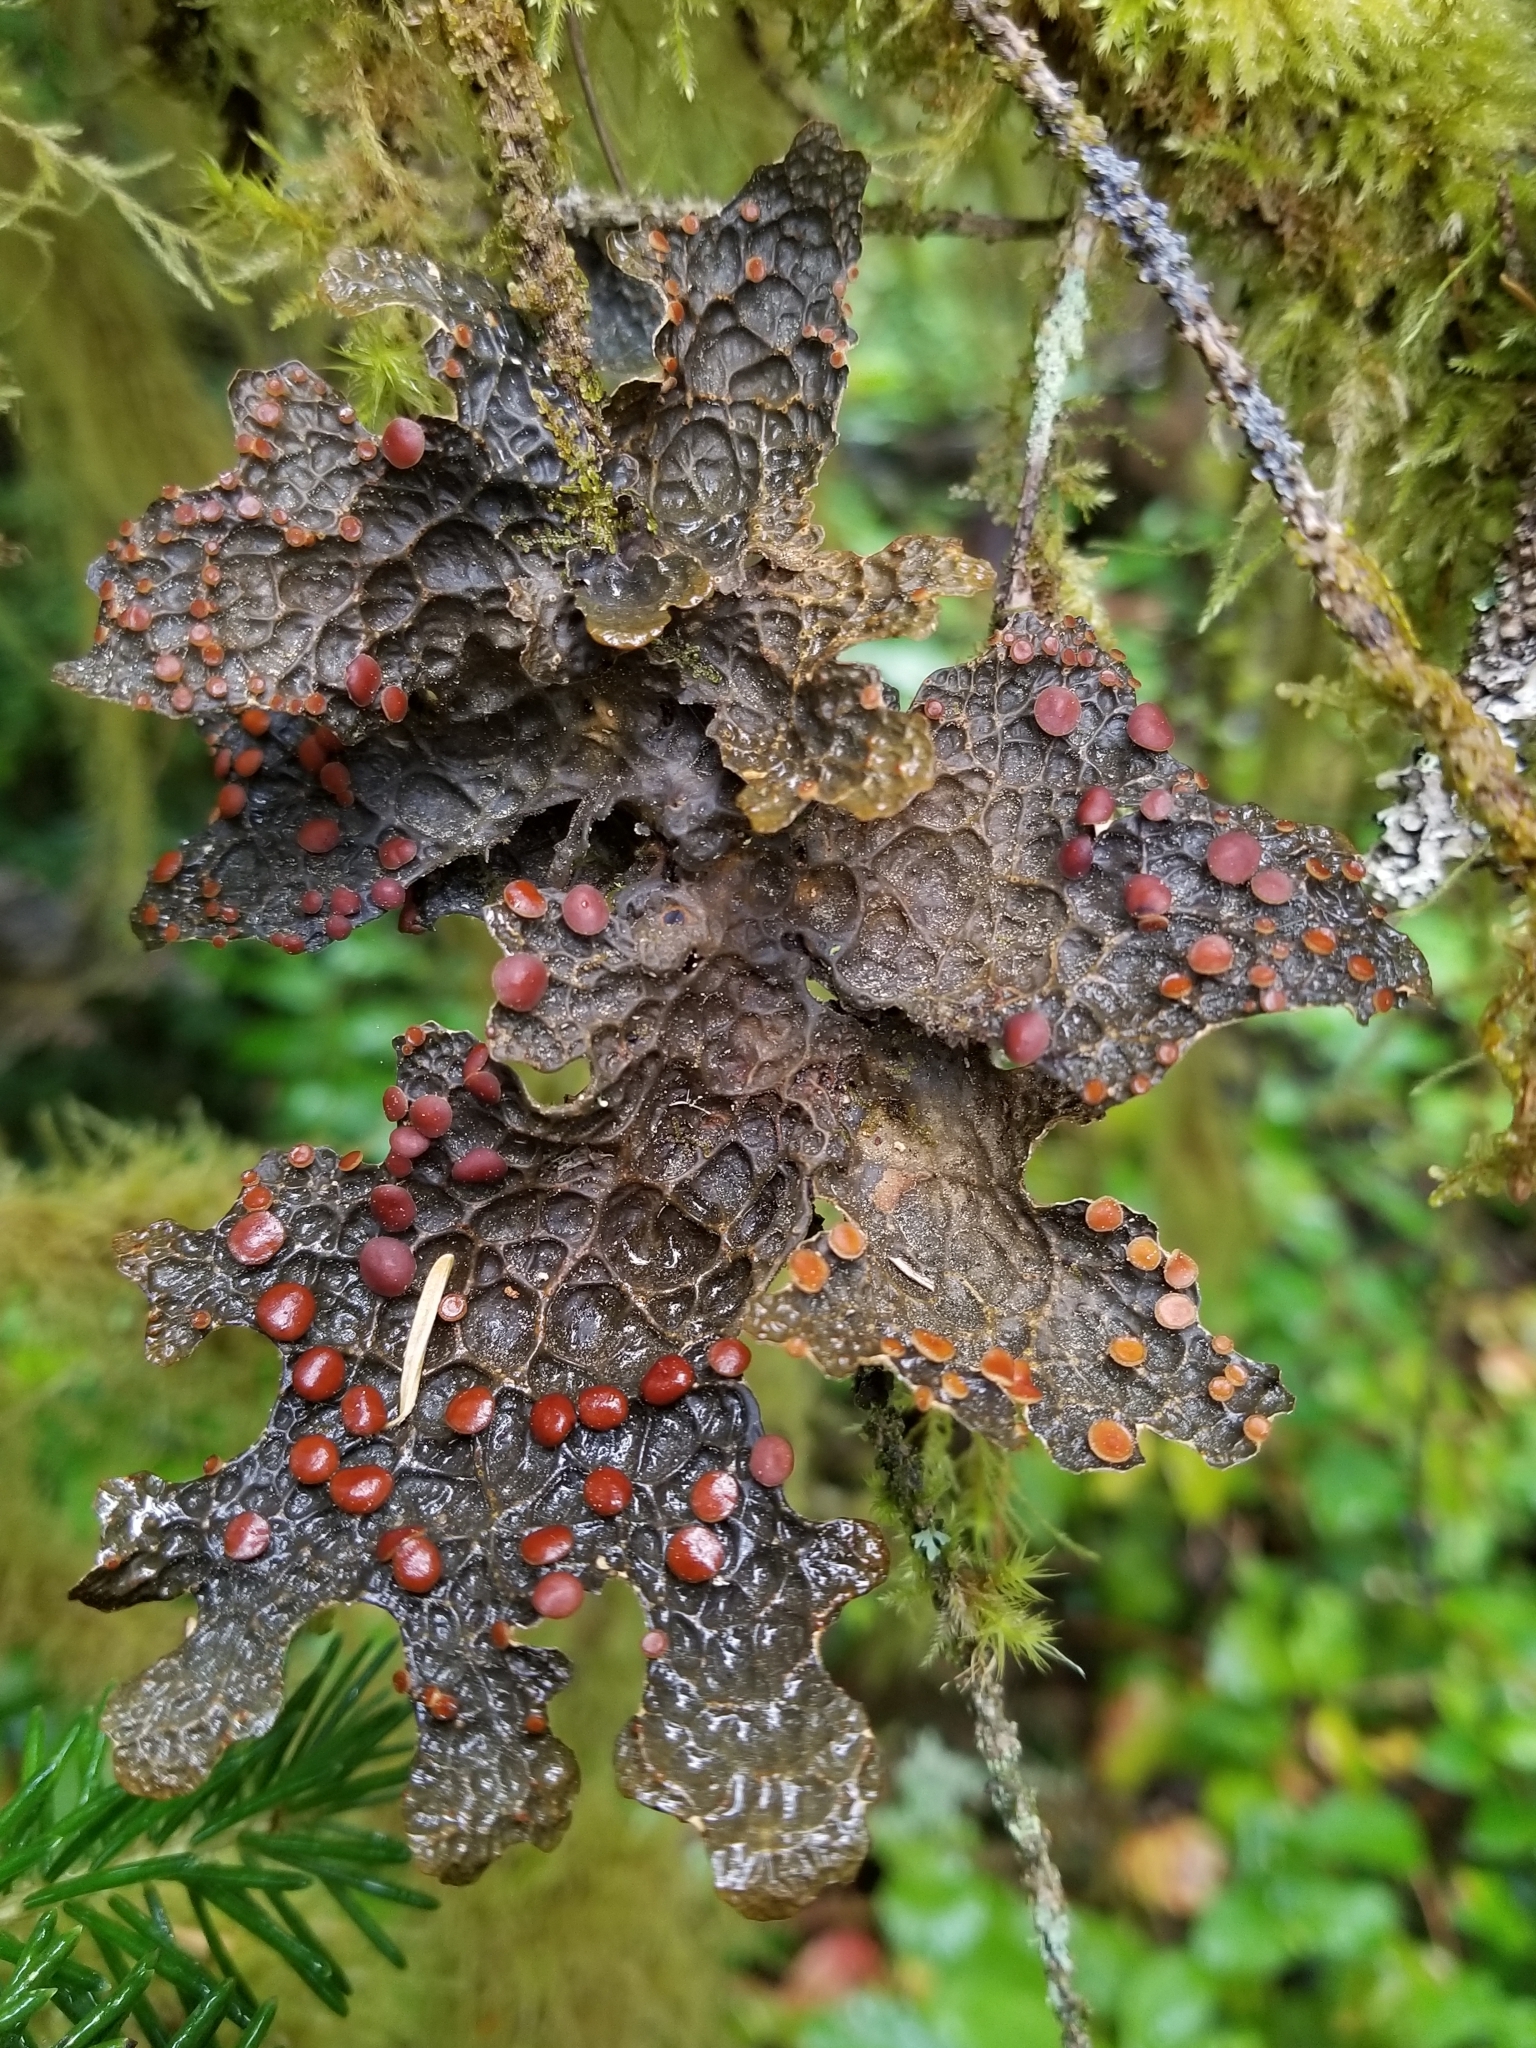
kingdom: Fungi
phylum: Ascomycota
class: Lecanoromycetes
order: Peltigerales
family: Lobariaceae
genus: Lobaria
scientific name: Lobaria anthraspis
